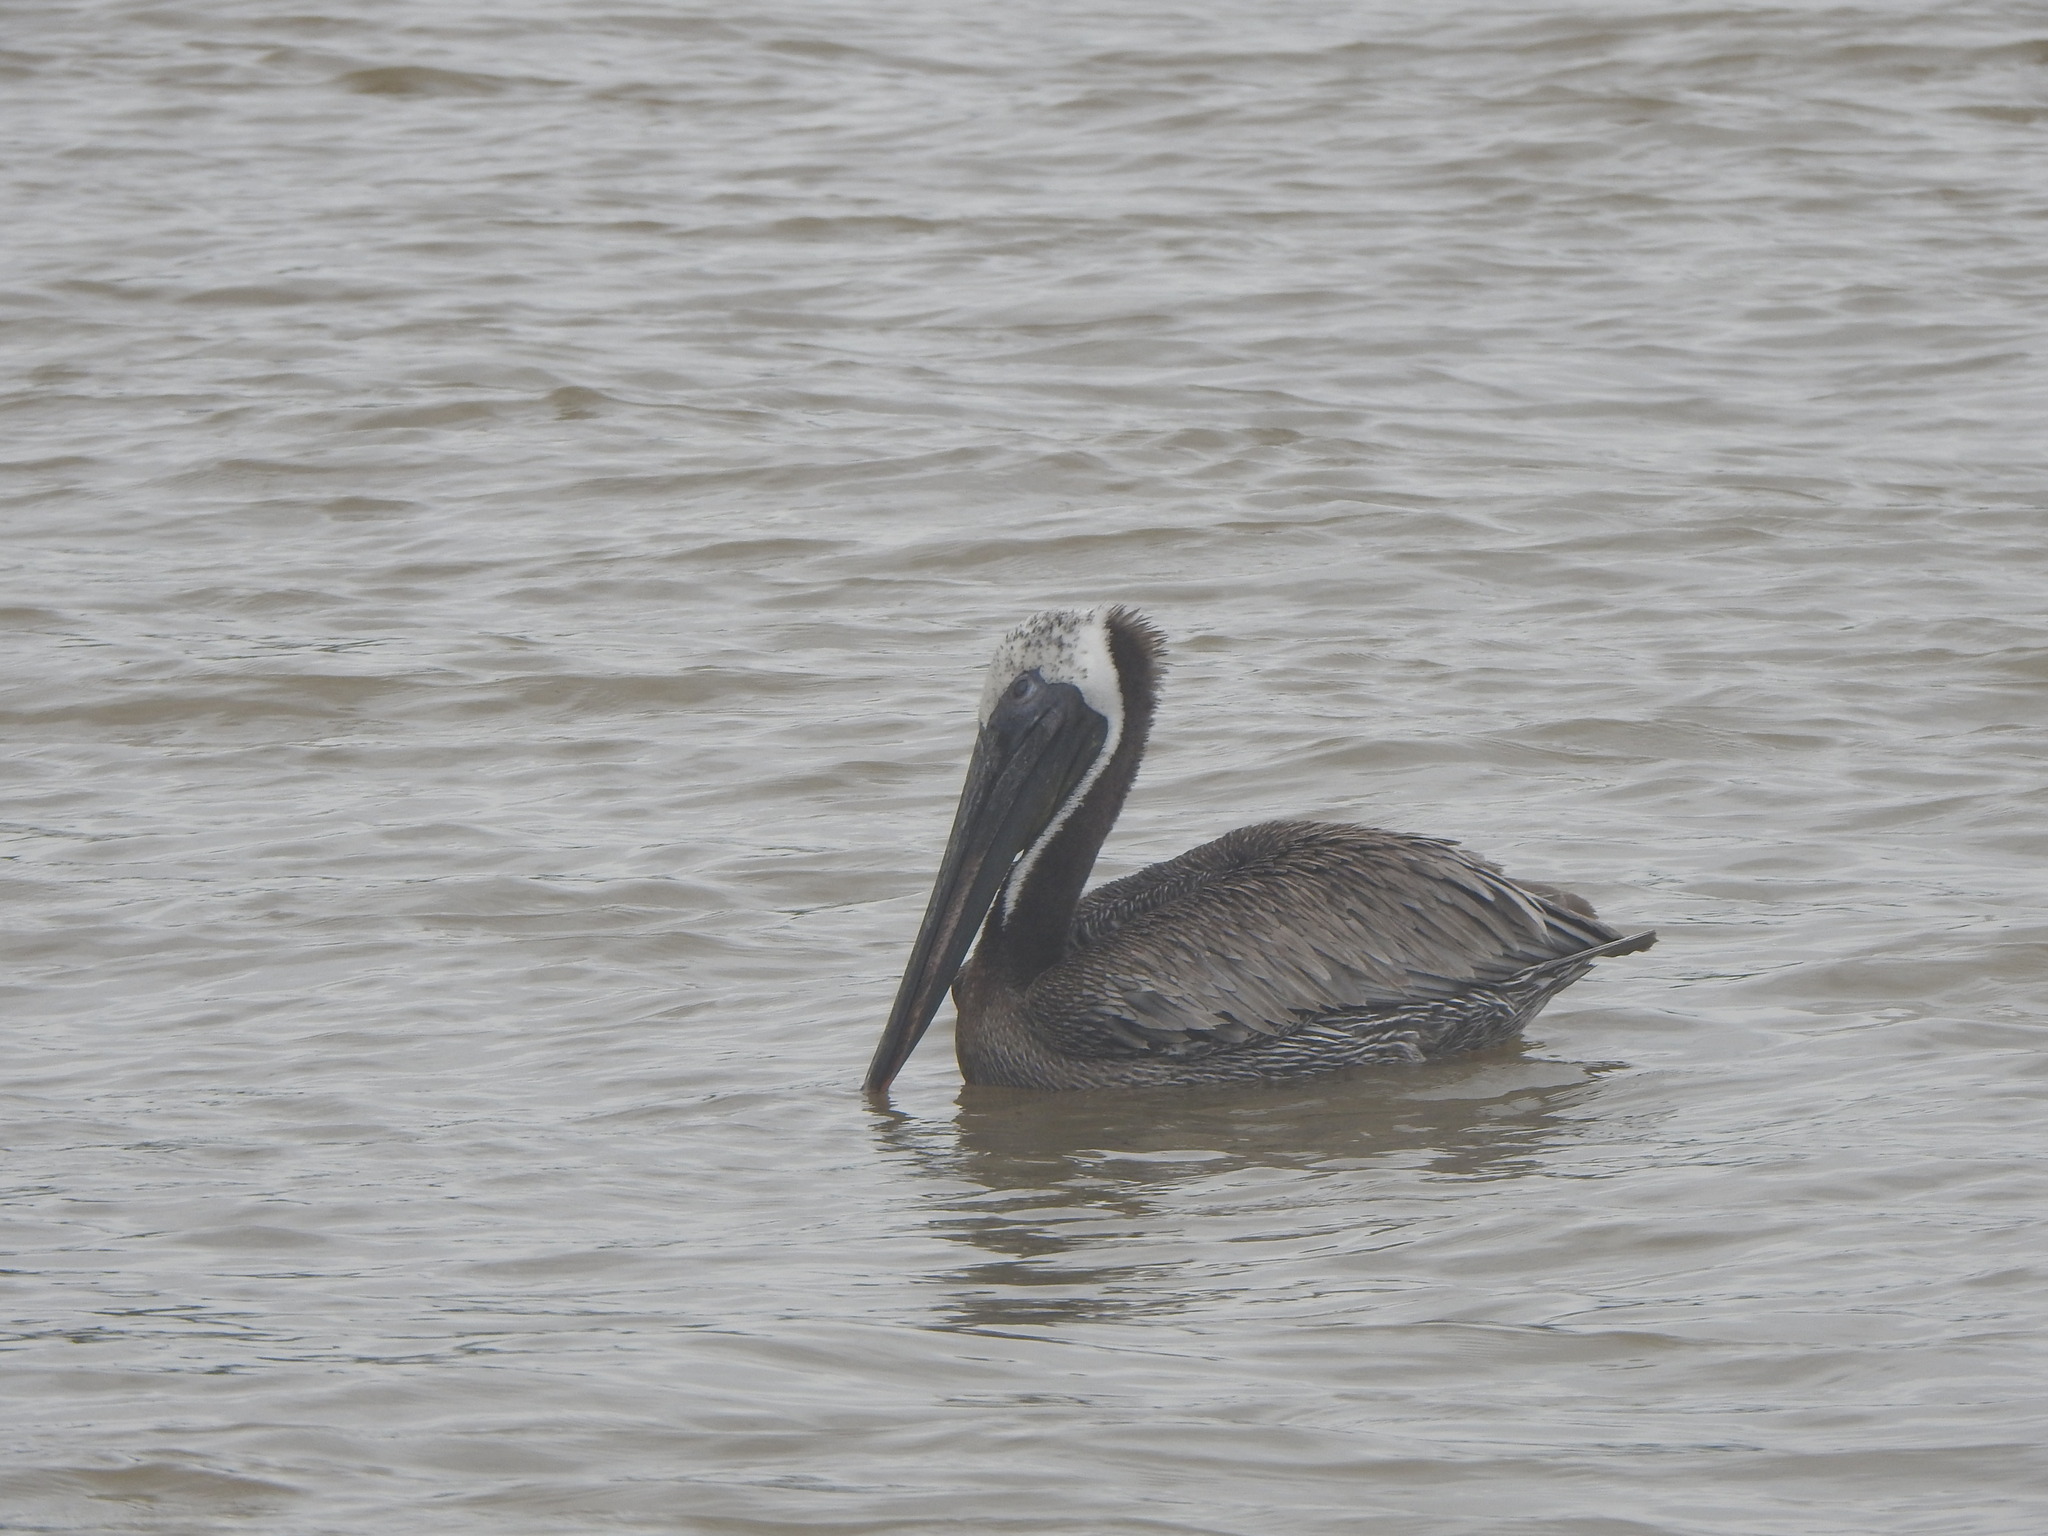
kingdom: Animalia
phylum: Chordata
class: Aves
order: Pelecaniformes
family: Pelecanidae
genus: Pelecanus
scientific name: Pelecanus occidentalis
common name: Brown pelican
